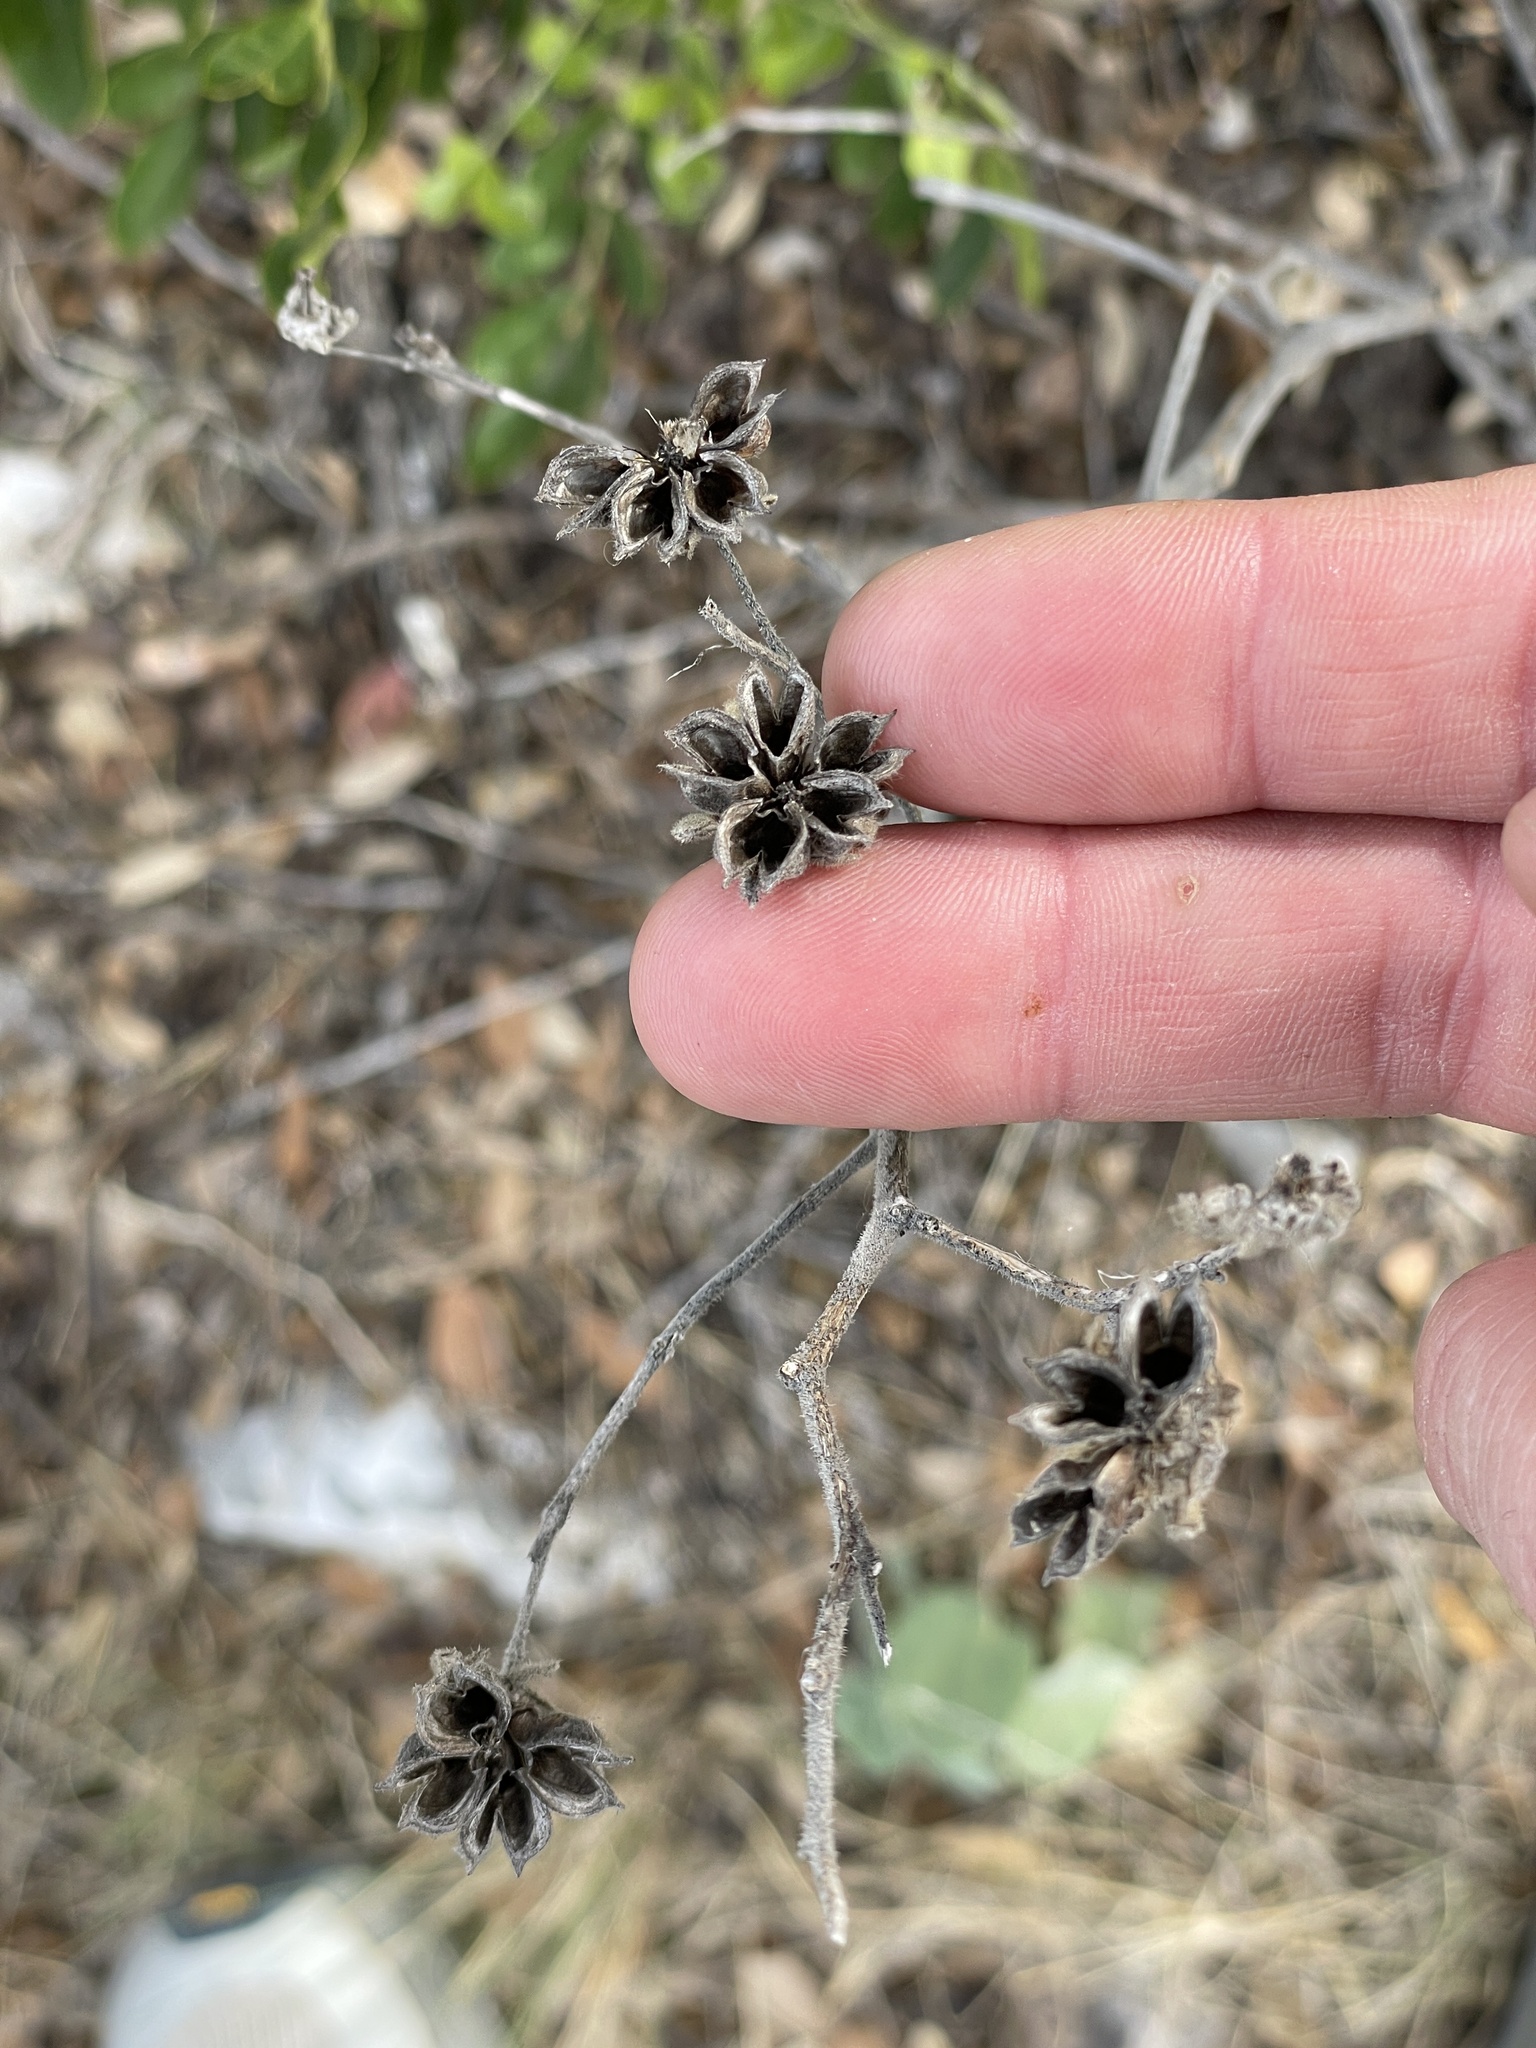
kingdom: Plantae
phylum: Tracheophyta
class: Magnoliopsida
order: Malvales
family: Malvaceae
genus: Allowissadula
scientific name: Allowissadula holosericea
